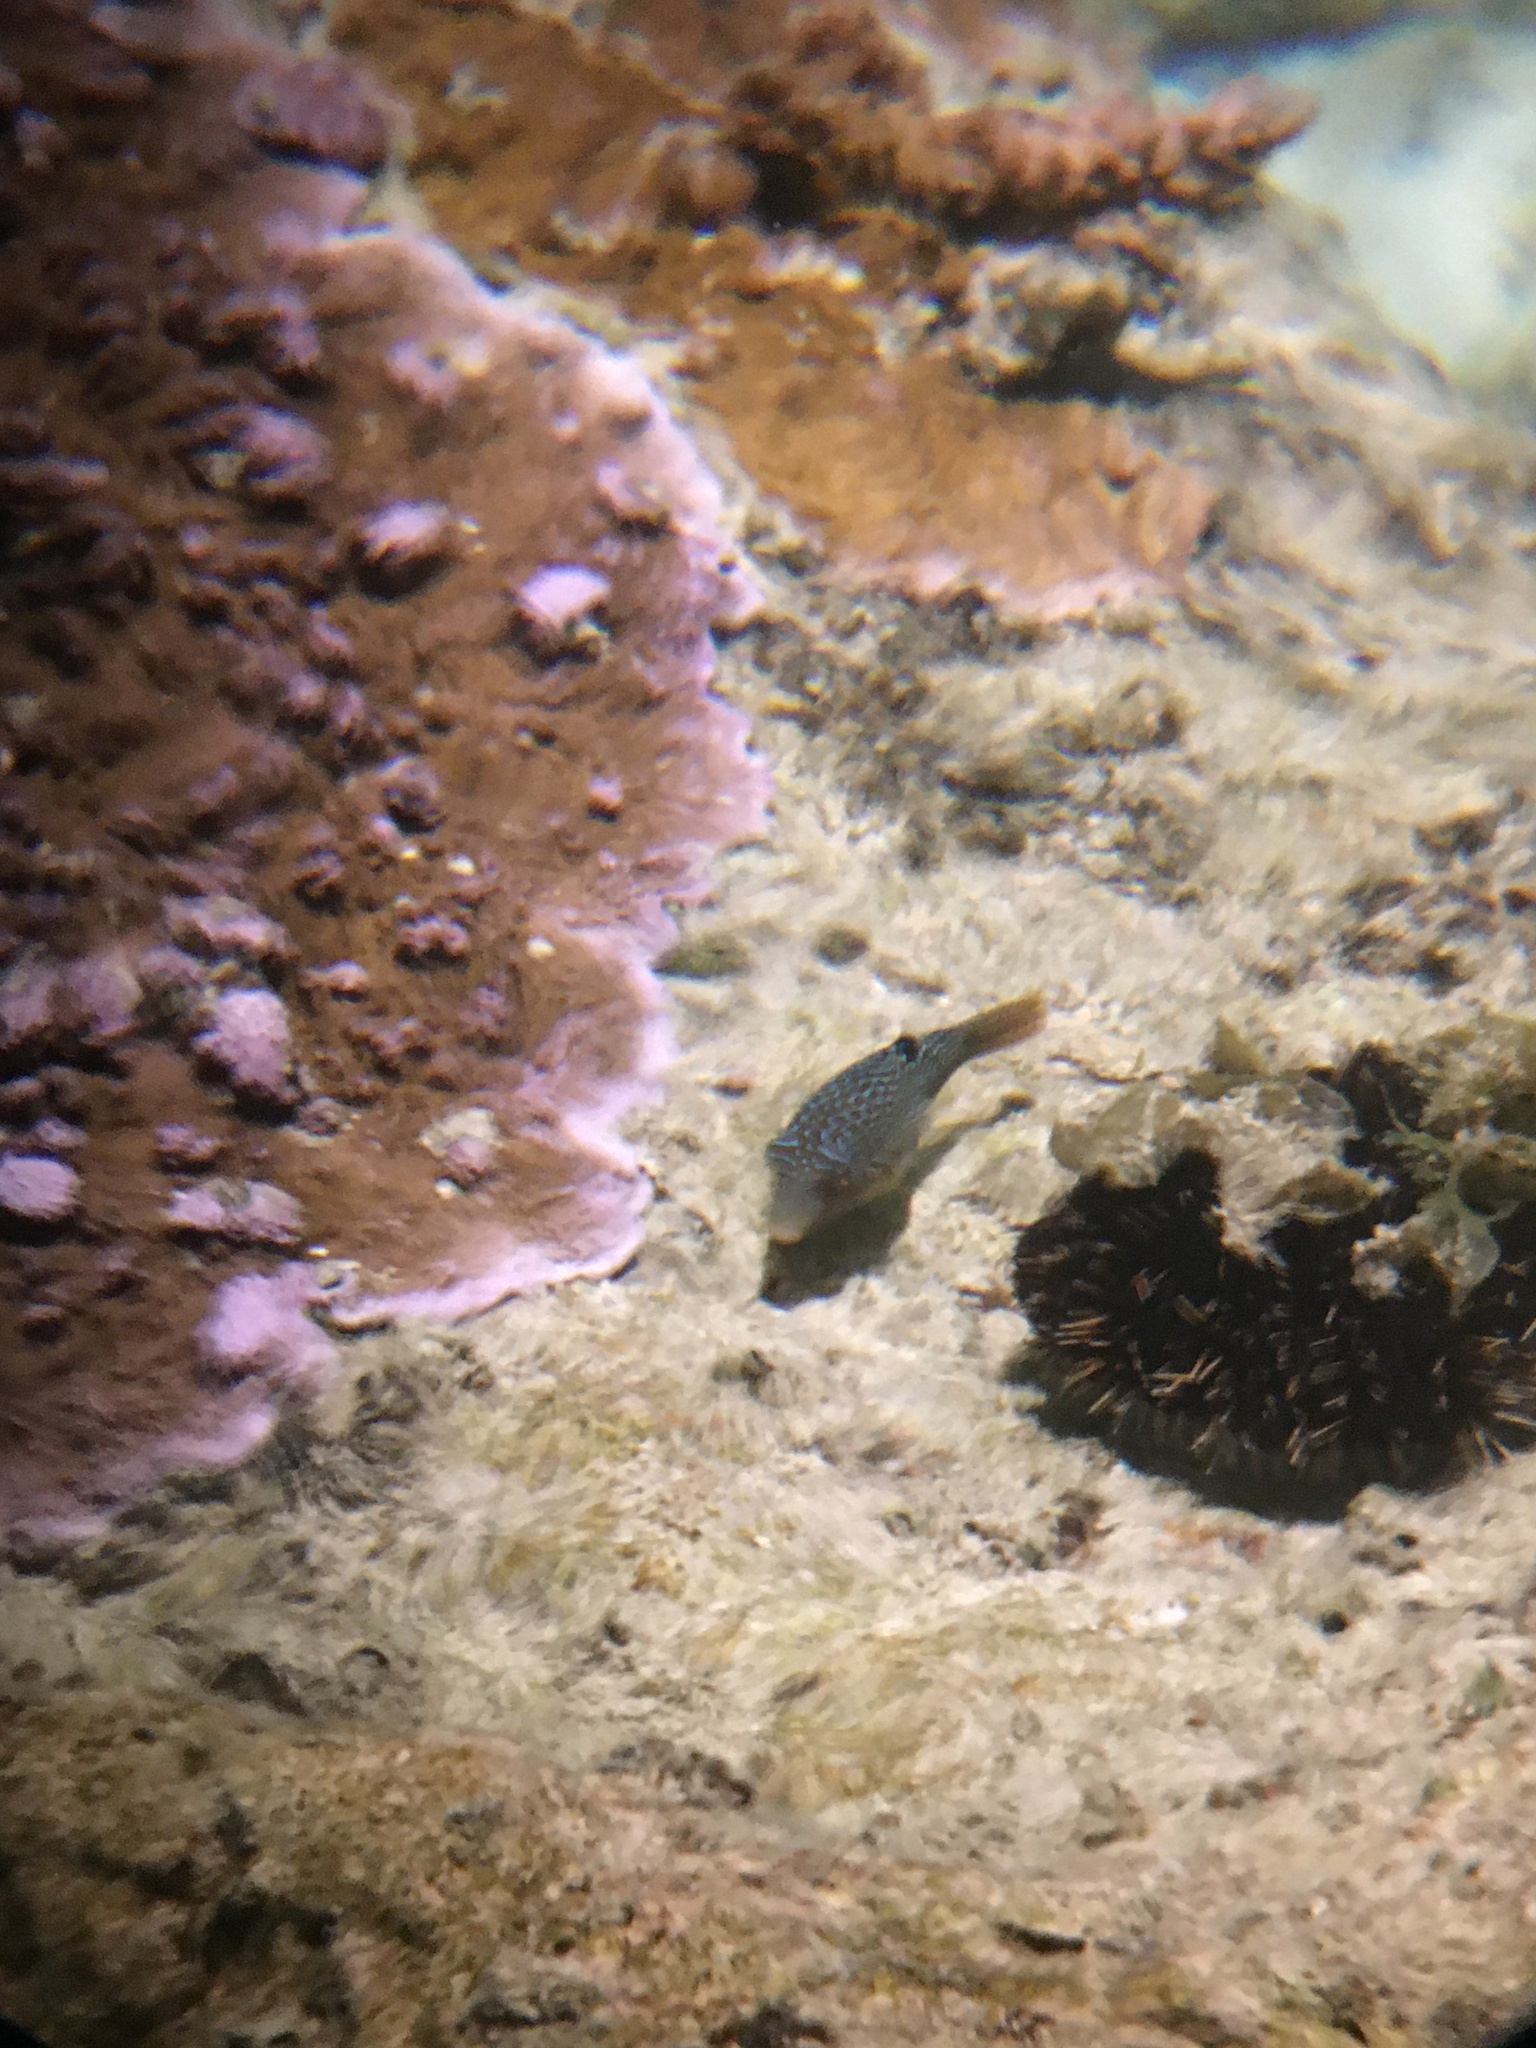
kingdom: Animalia
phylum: Chordata
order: Tetraodontiformes
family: Tetraodontidae
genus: Canthigaster
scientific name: Canthigaster solandri
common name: False-eye toby
